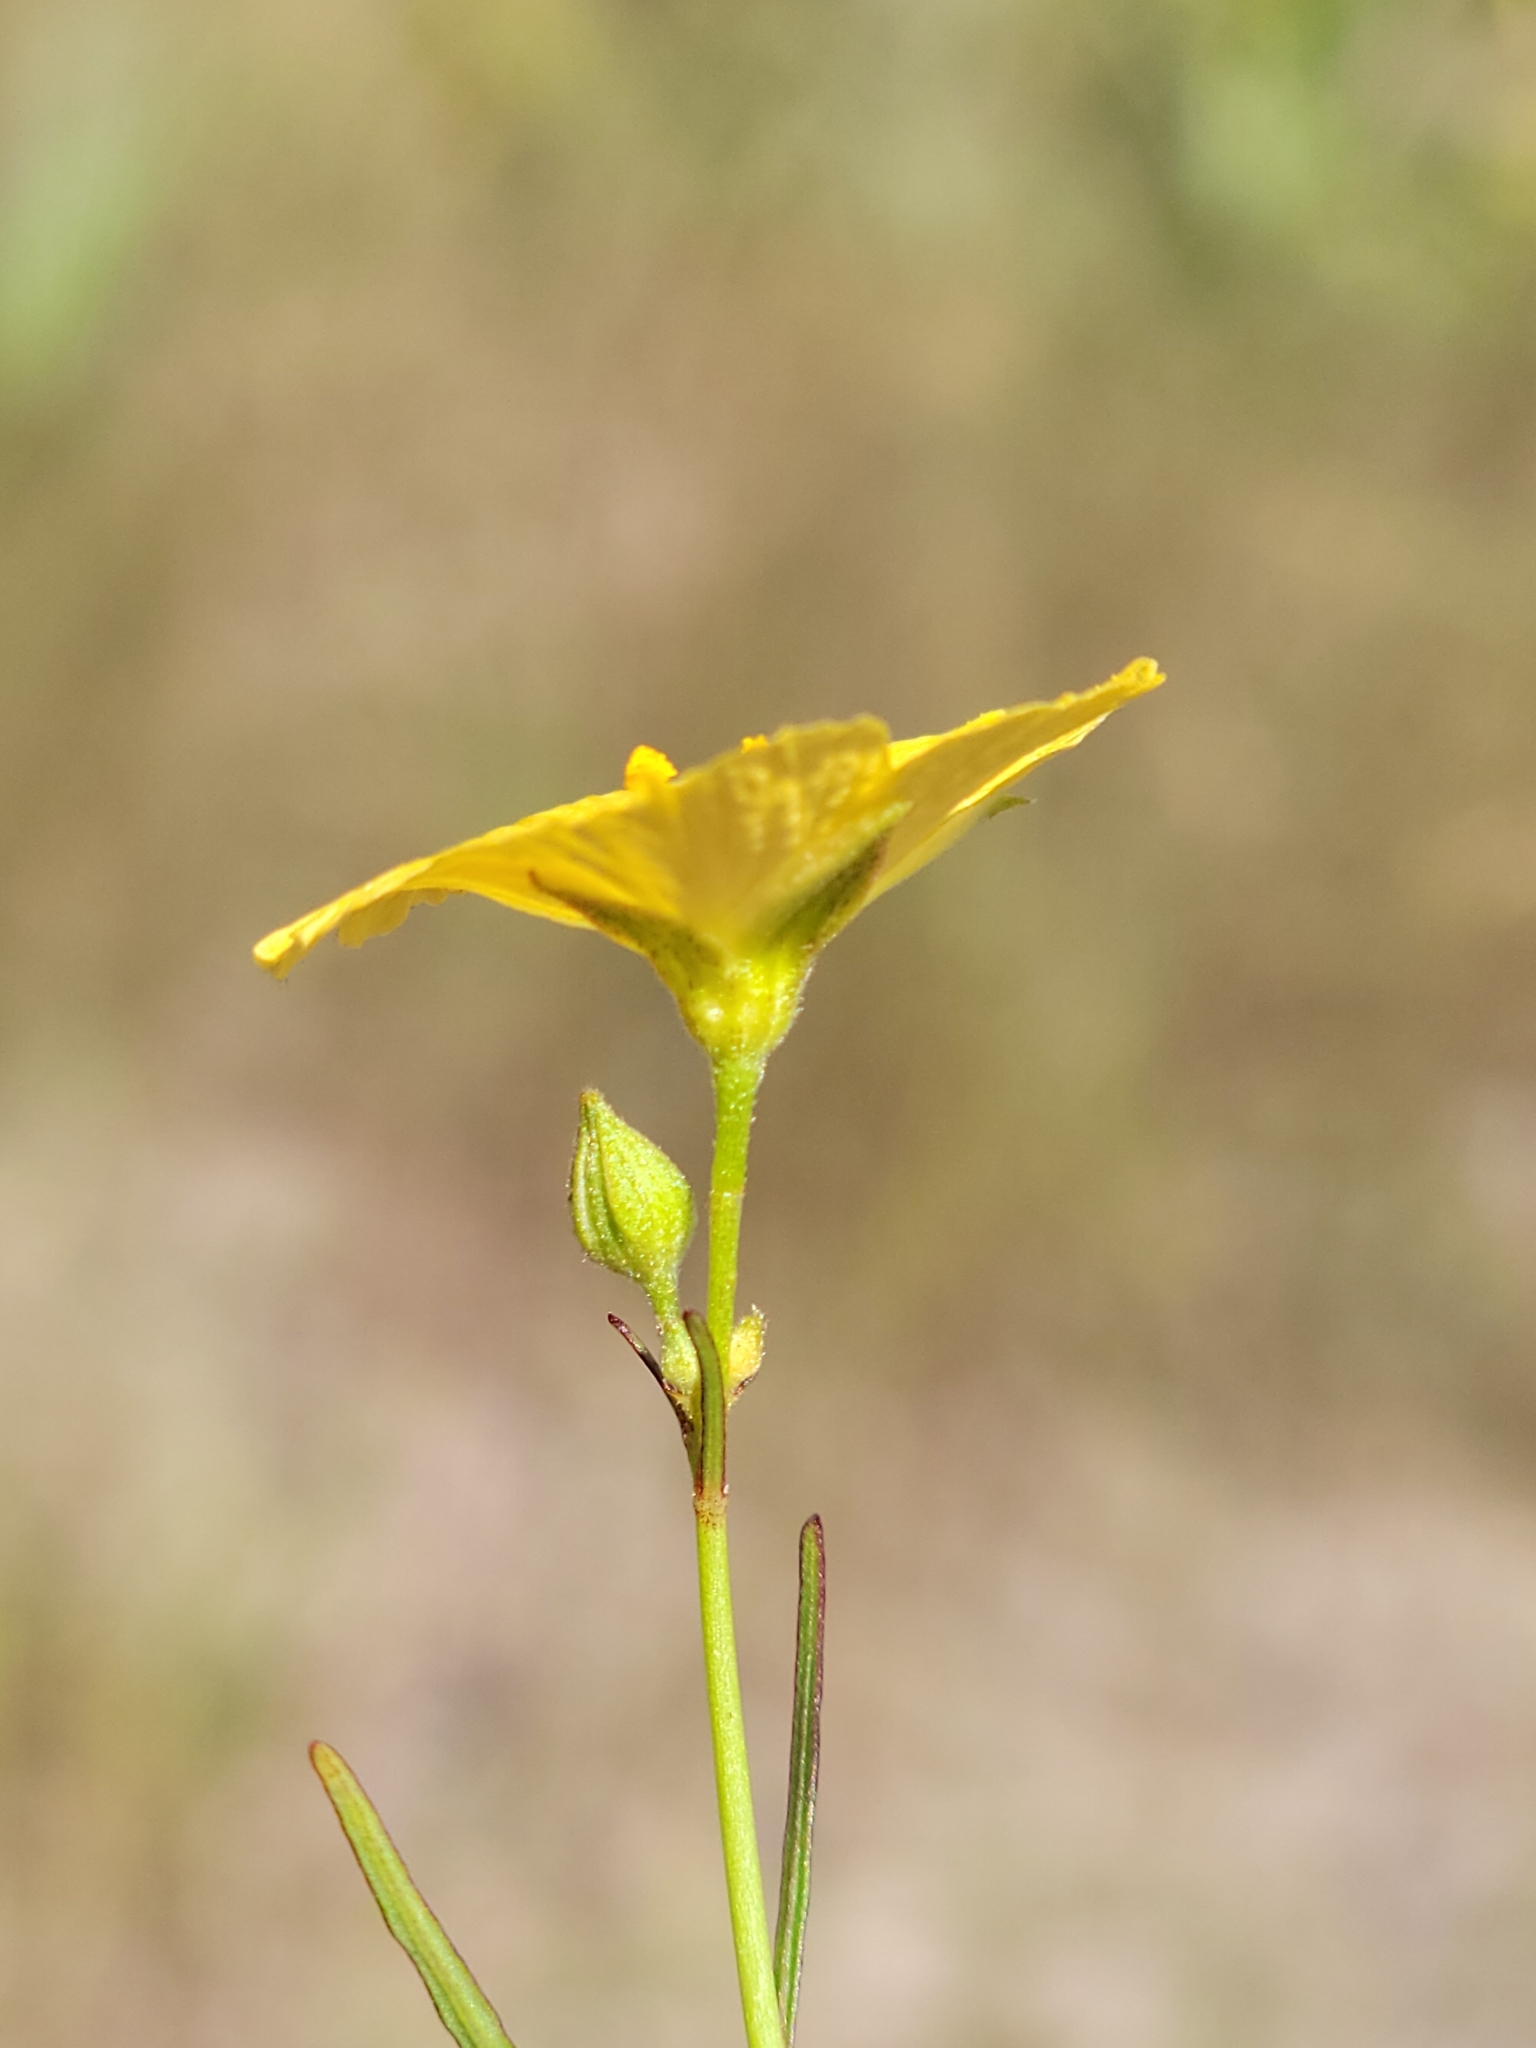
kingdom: Plantae
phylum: Tracheophyta
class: Magnoliopsida
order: Malpighiales
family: Turneraceae
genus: Piriqueta
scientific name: Piriqueta cistoides
